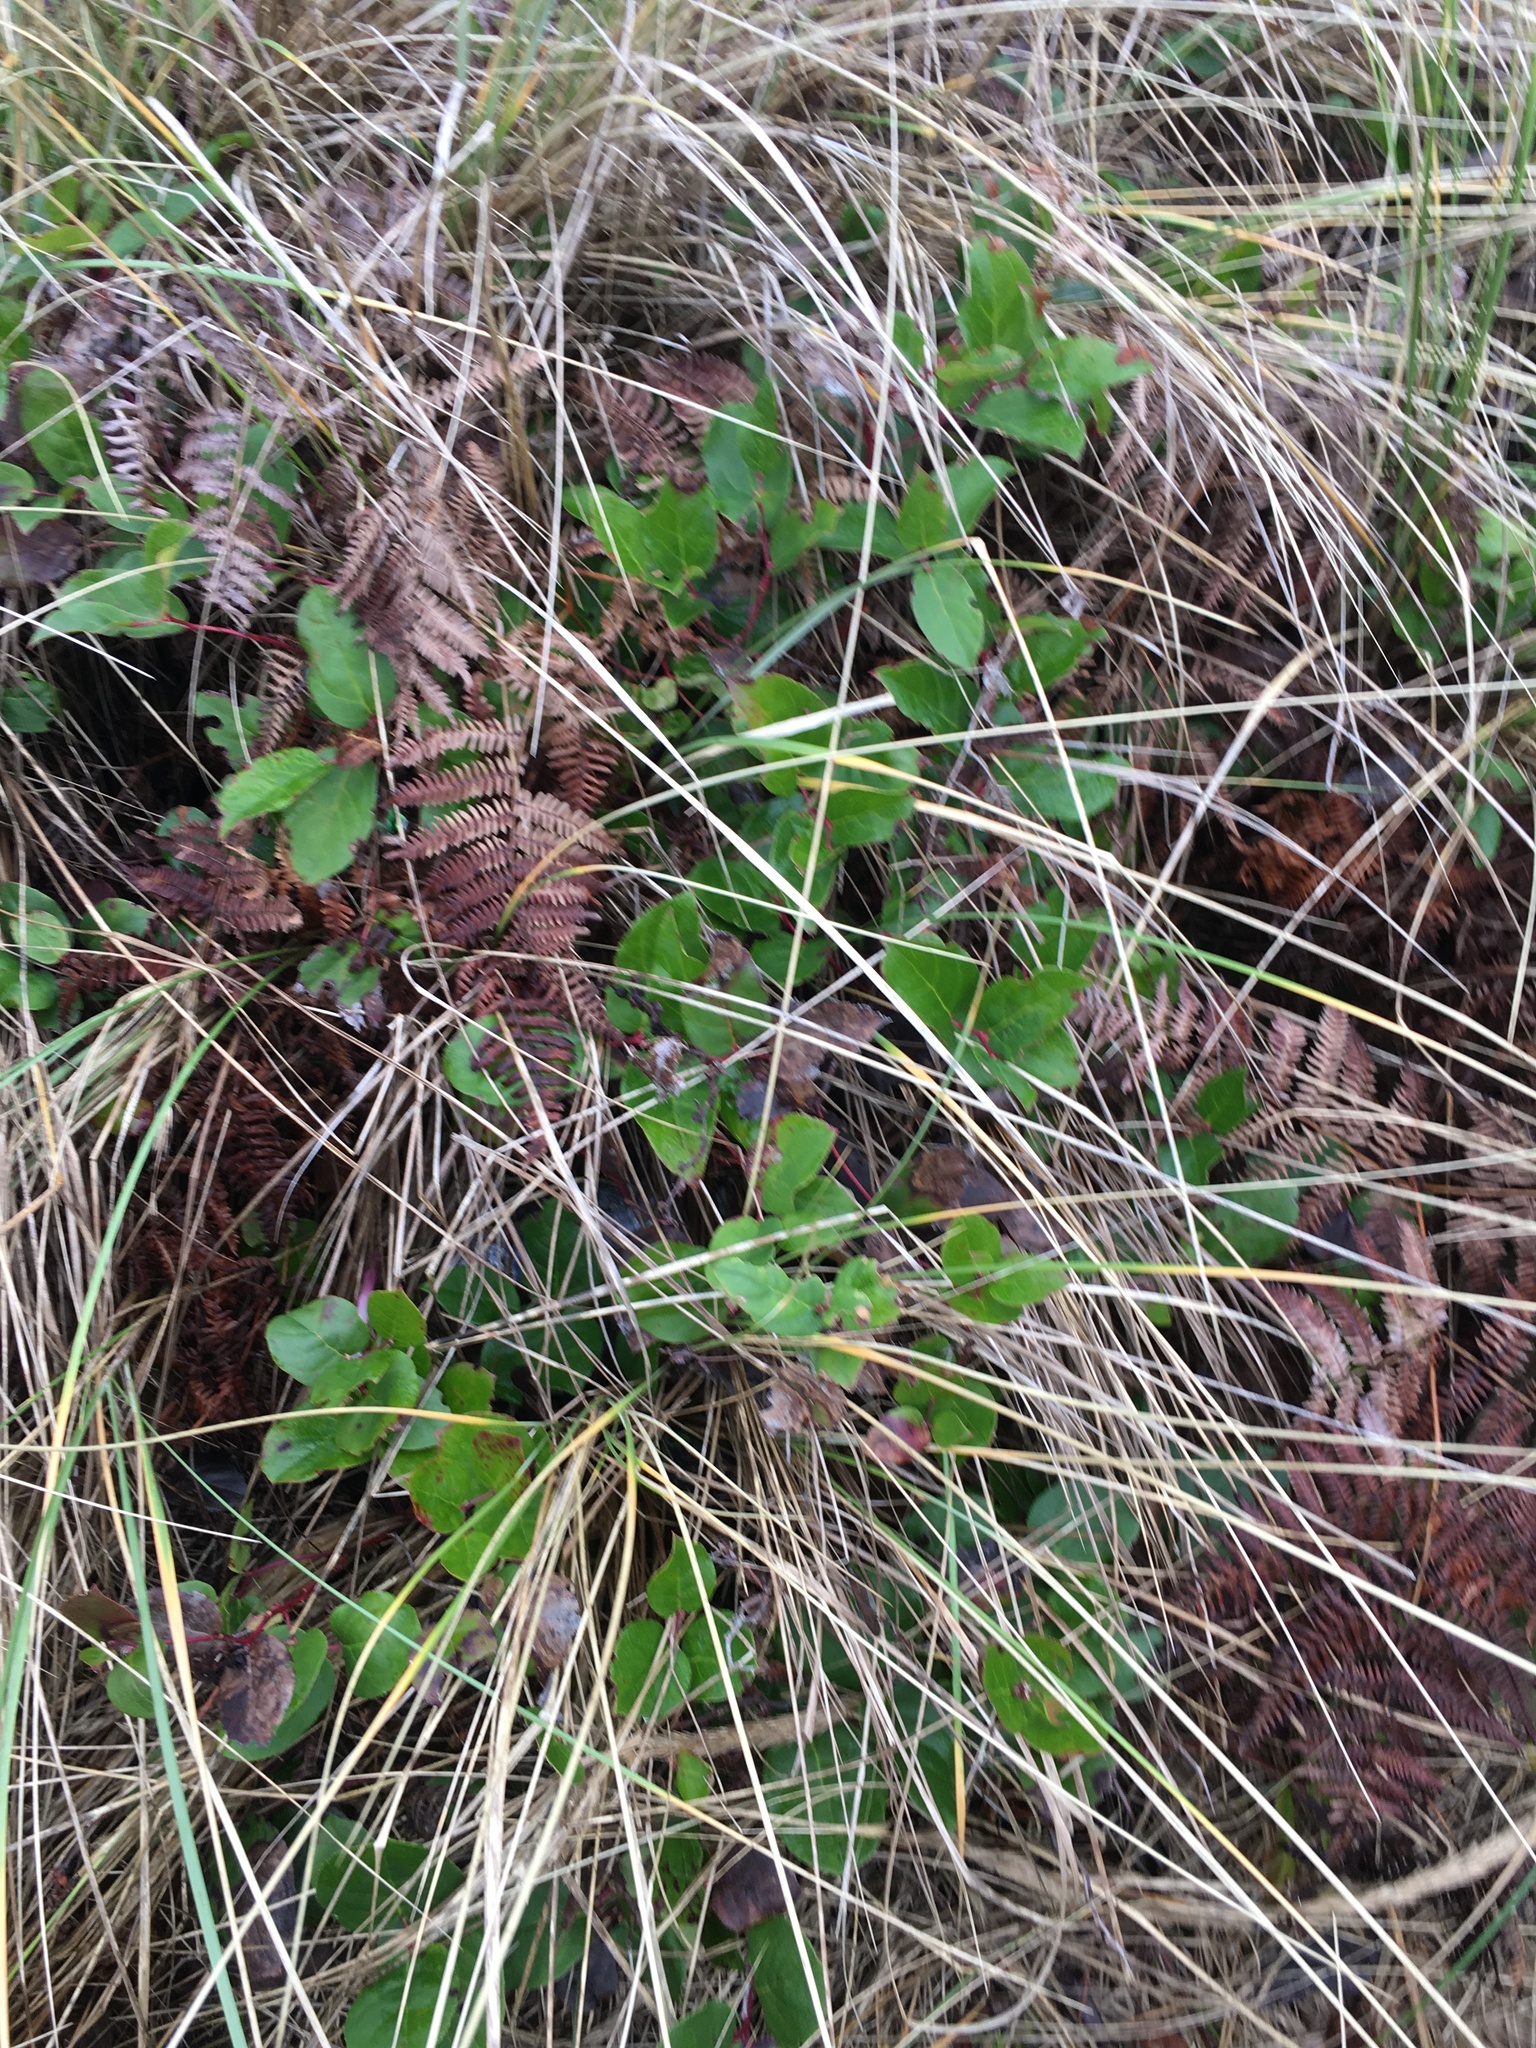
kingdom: Plantae
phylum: Tracheophyta
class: Magnoliopsida
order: Ericales
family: Ericaceae
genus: Gaultheria
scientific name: Gaultheria shallon
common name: Shallon
